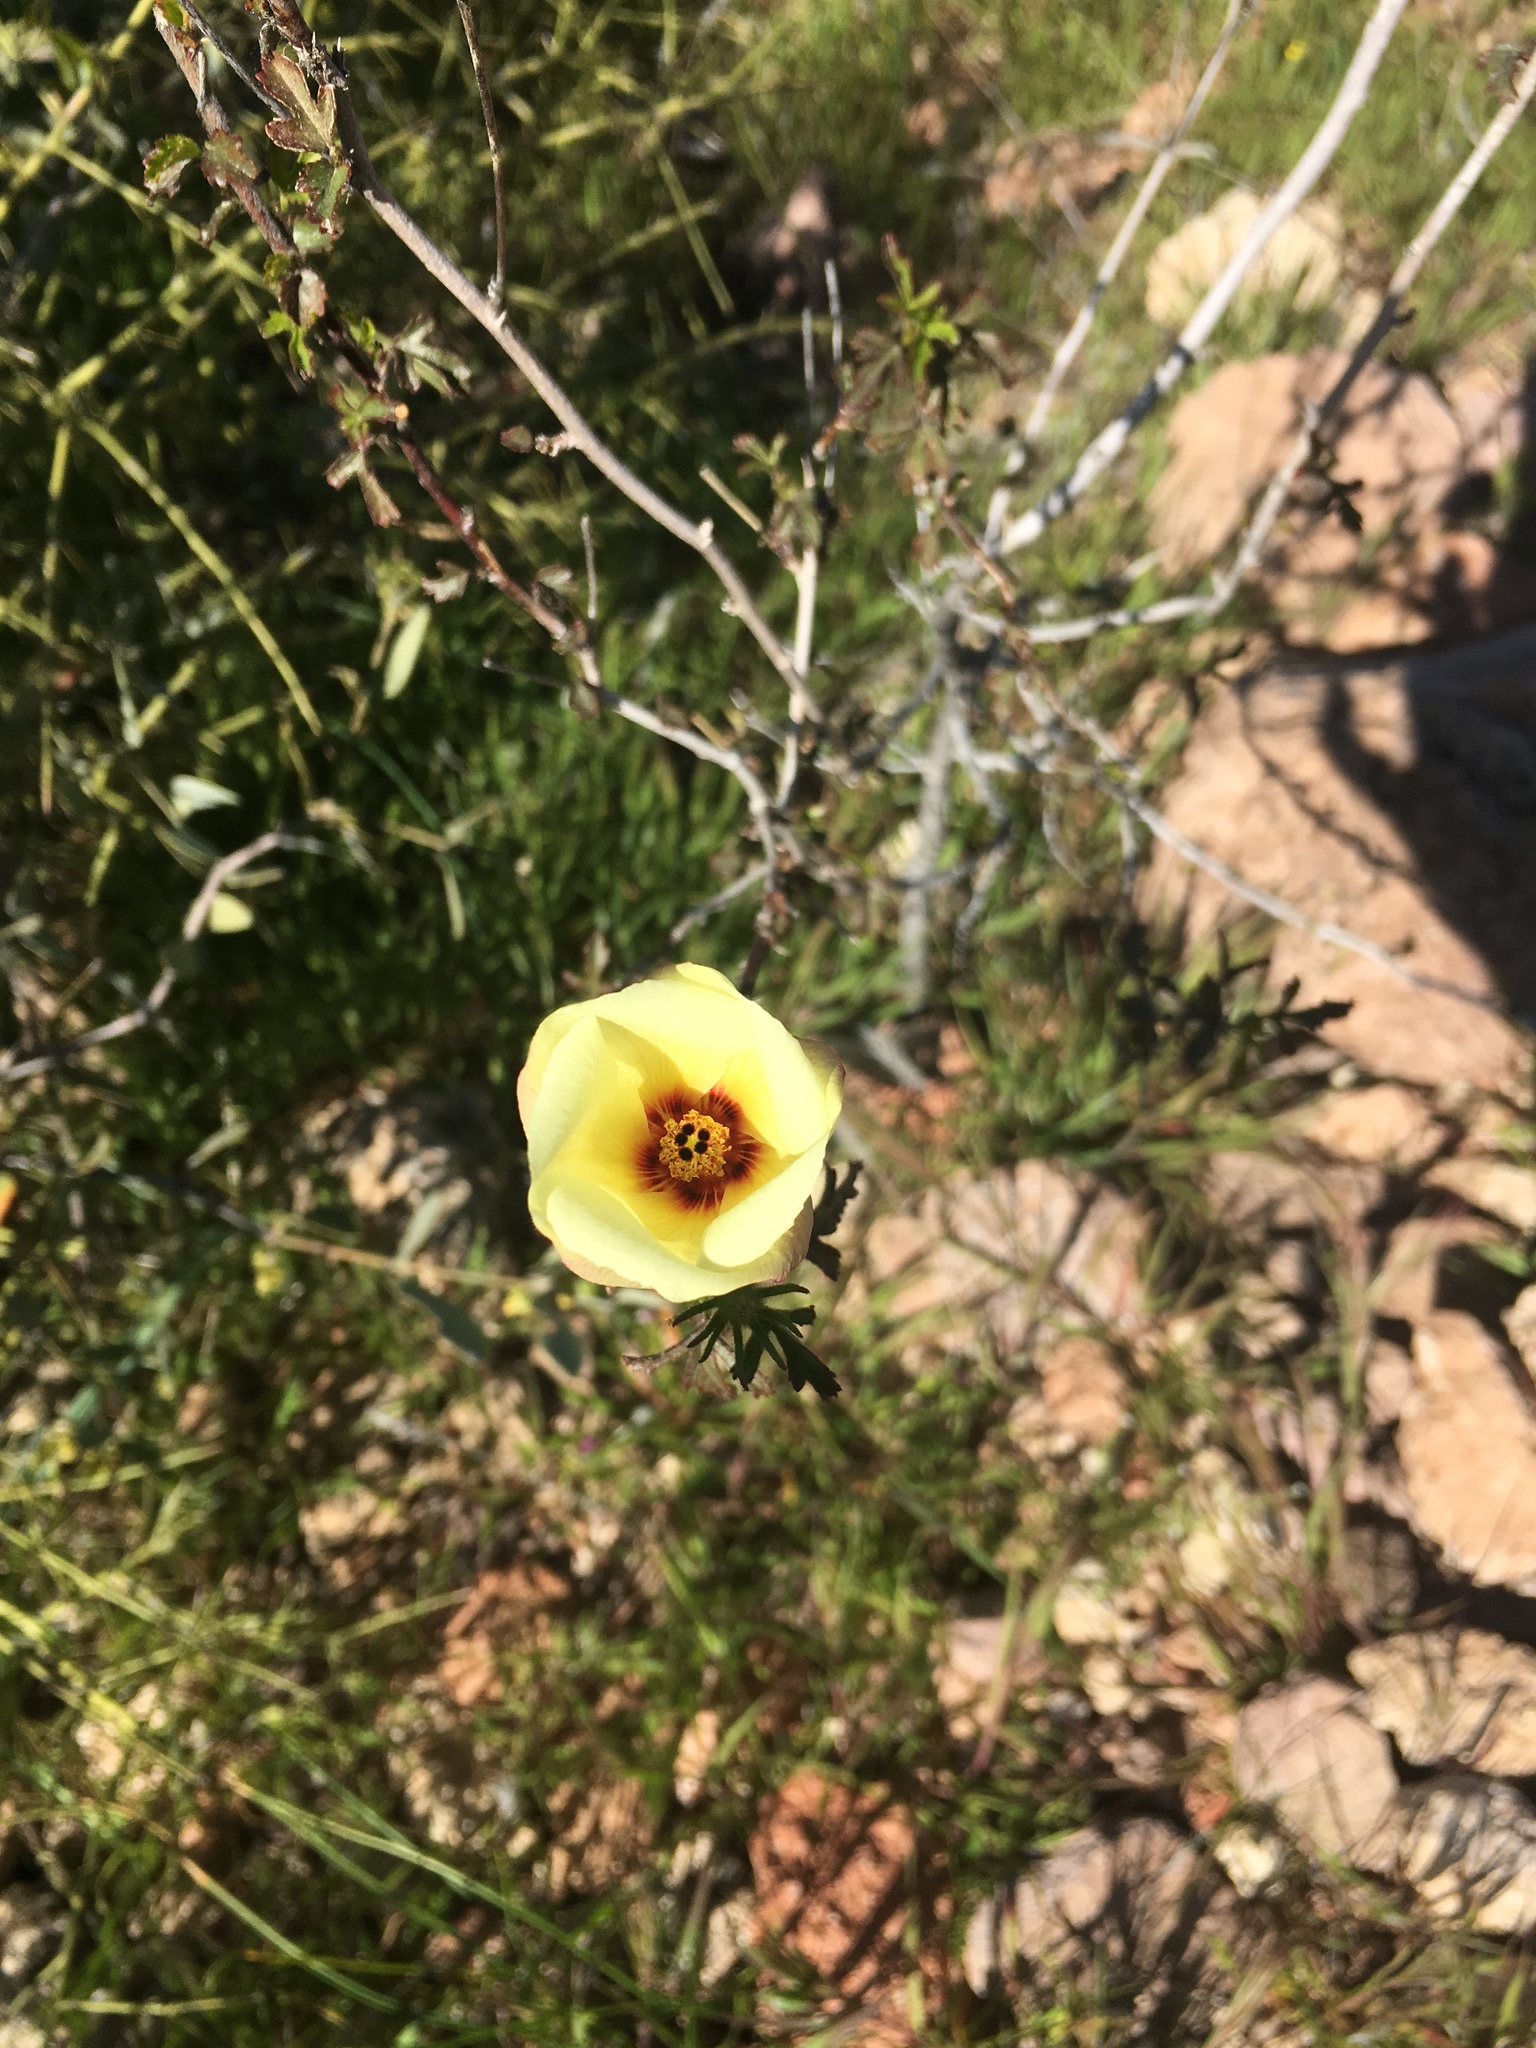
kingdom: Plantae
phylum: Tracheophyta
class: Magnoliopsida
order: Malvales
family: Malvaceae
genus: Hibiscus
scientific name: Hibiscus coulteri
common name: Desert rose-mallow
